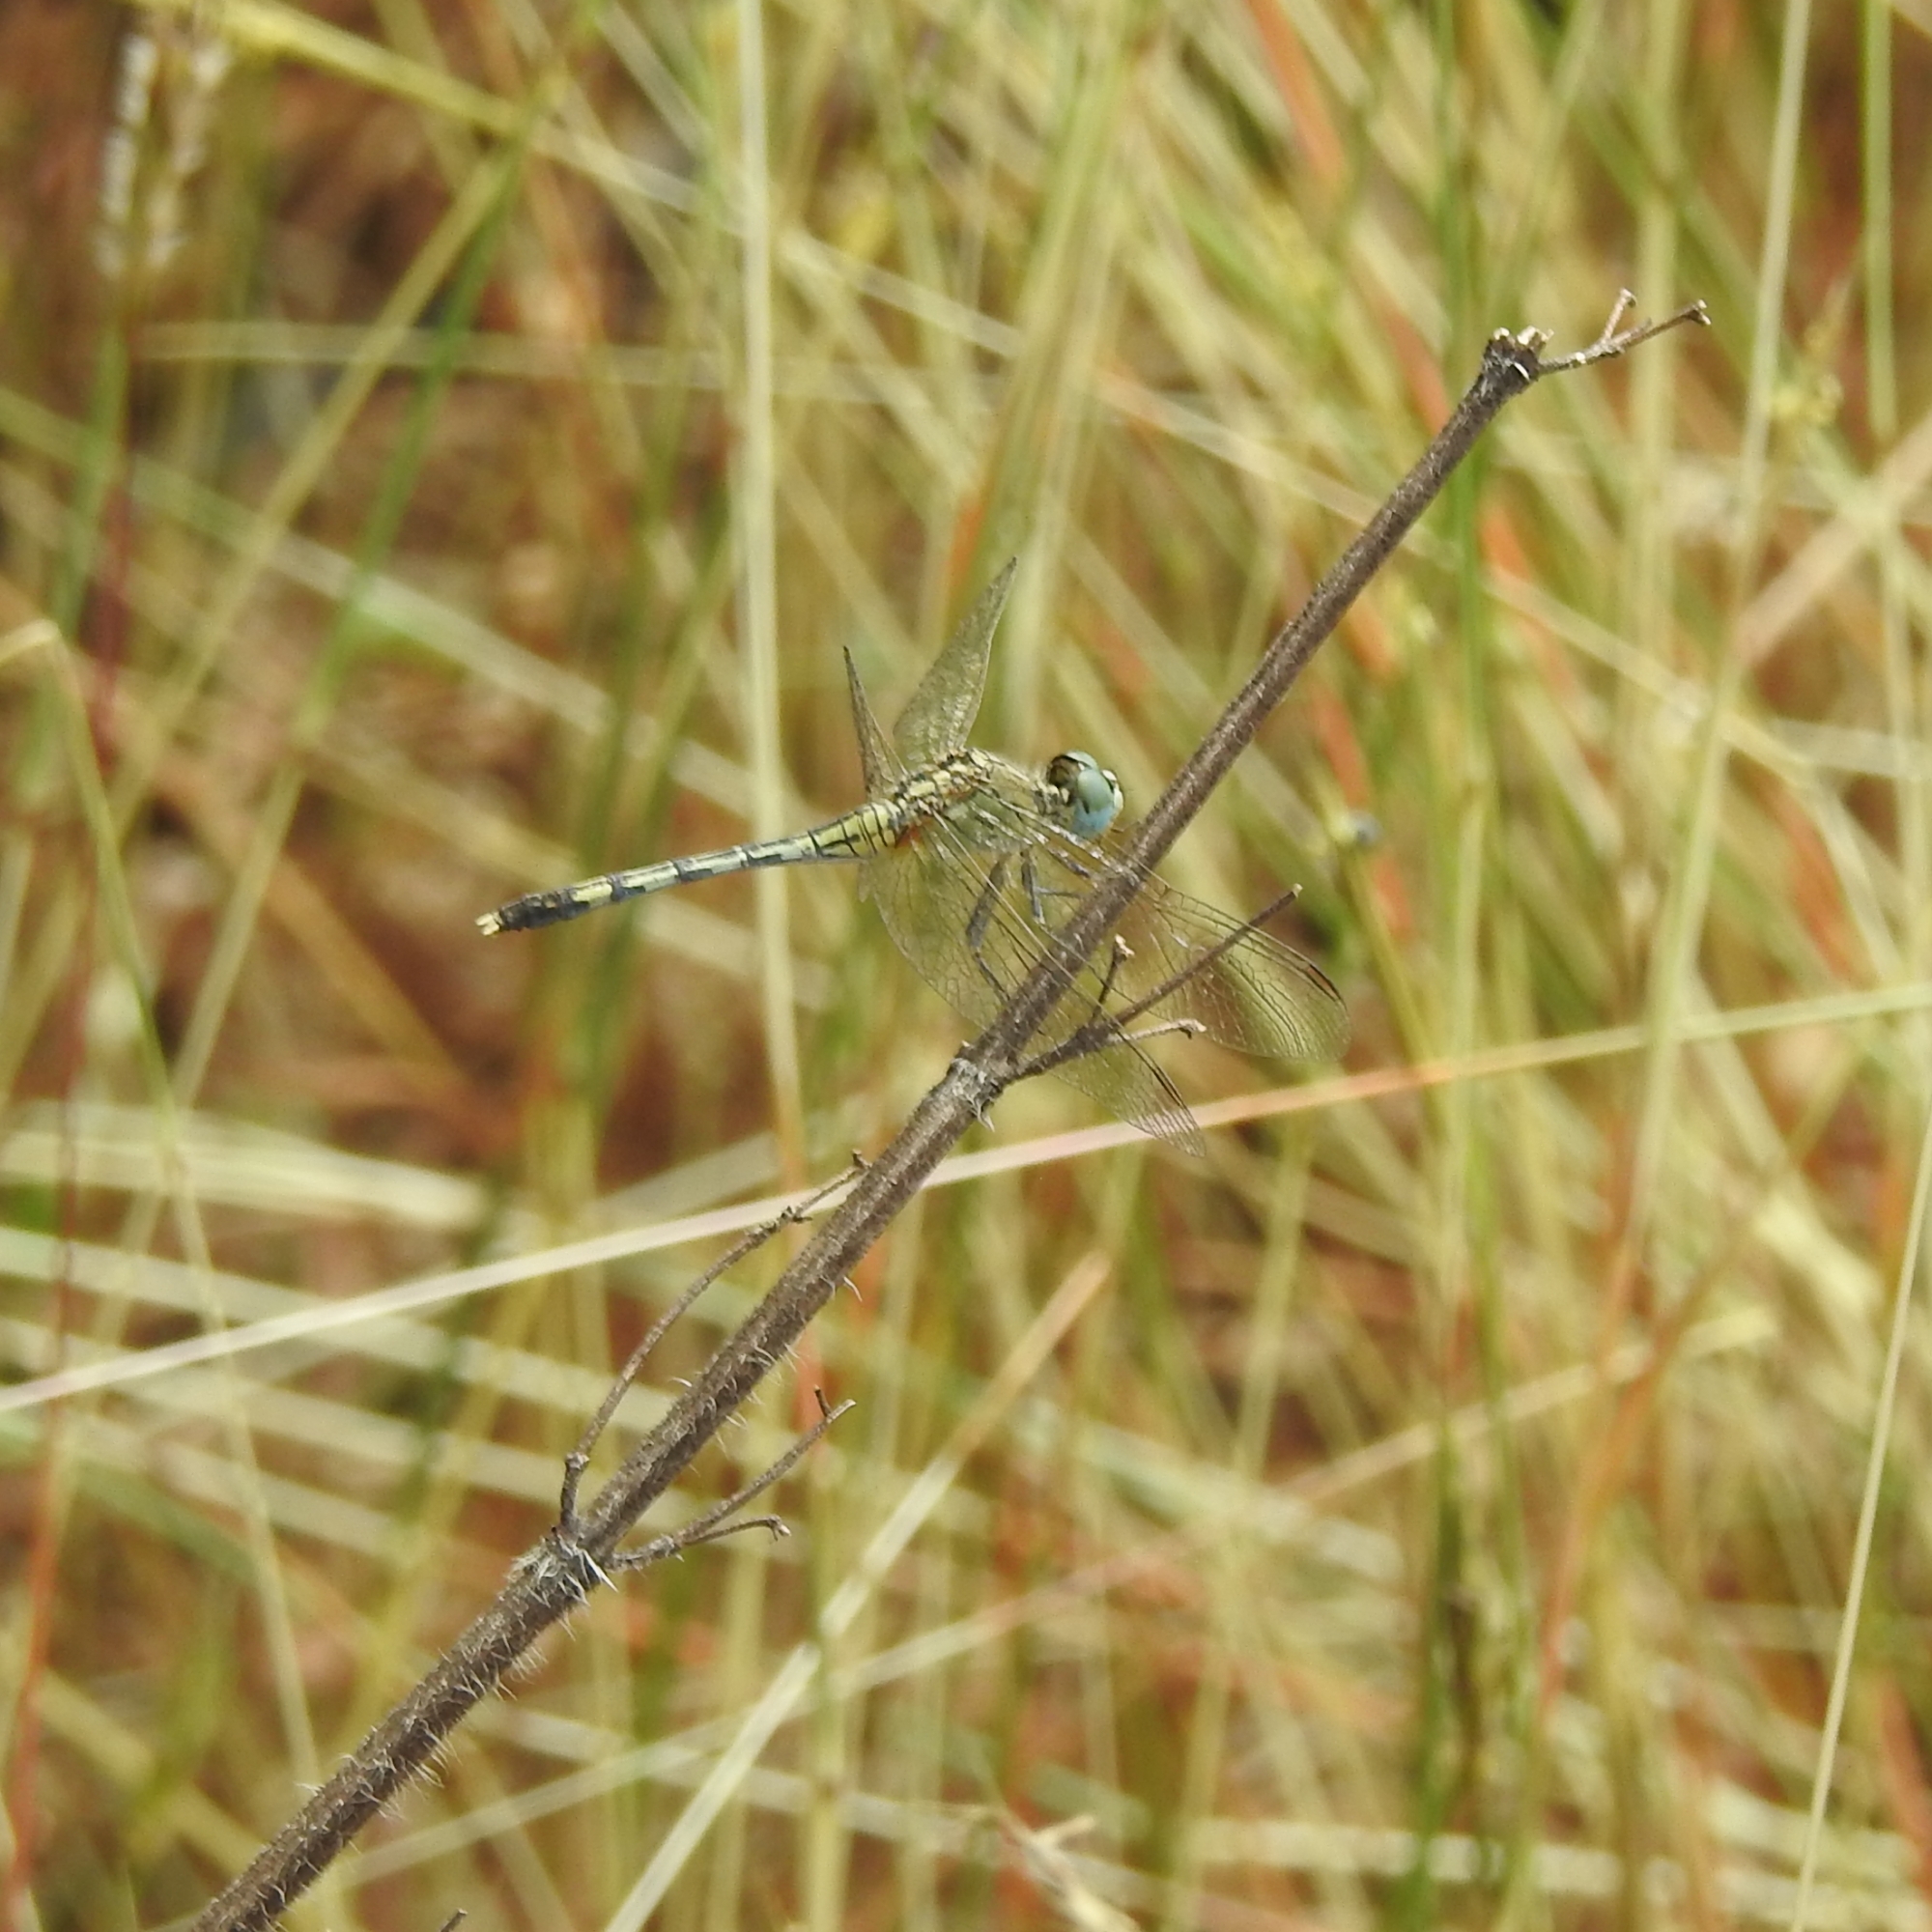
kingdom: Animalia
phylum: Arthropoda
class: Insecta
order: Odonata
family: Libellulidae
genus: Diplacodes
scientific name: Diplacodes trivialis
